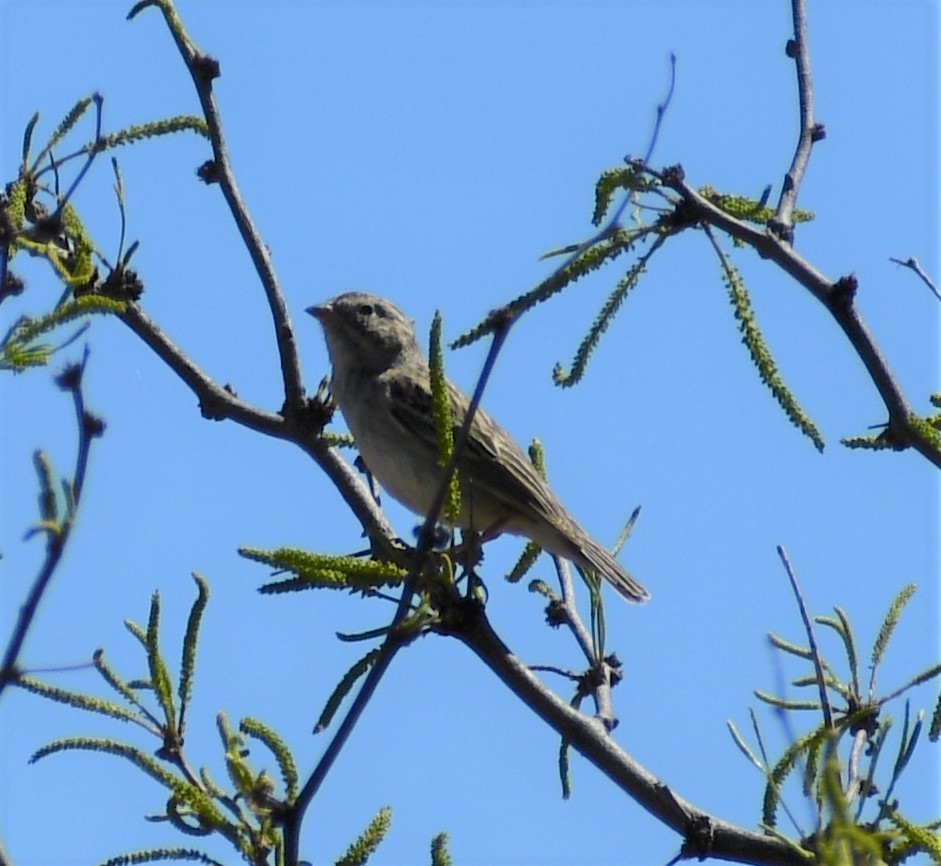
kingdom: Animalia
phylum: Chordata
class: Aves
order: Passeriformes
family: Passerellidae
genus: Spizella
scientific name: Spizella breweri
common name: Brewer's sparrow
